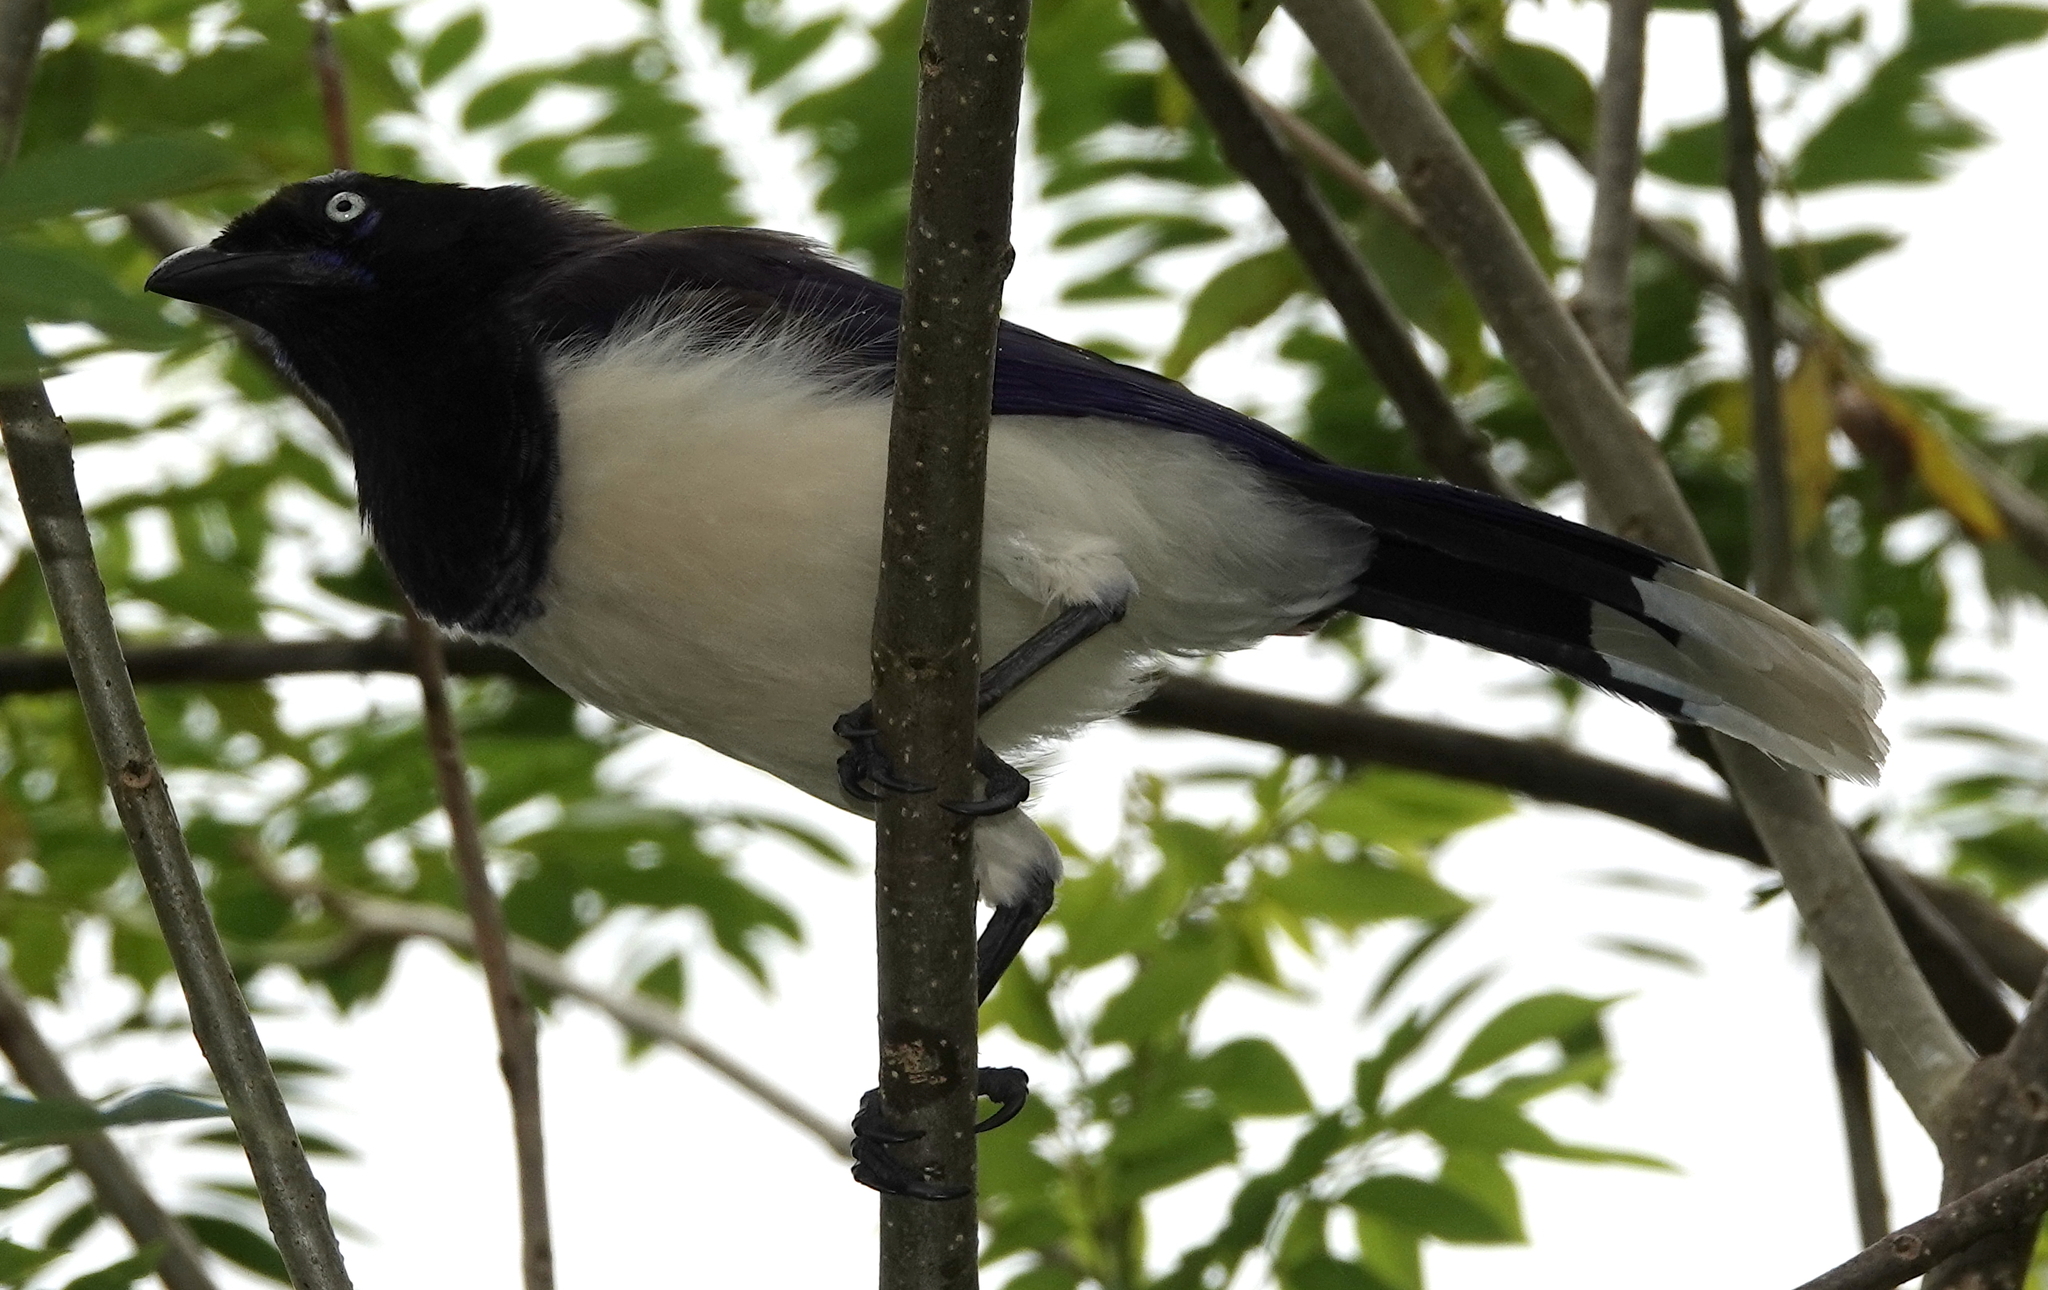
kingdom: Animalia
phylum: Chordata
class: Aves
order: Passeriformes
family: Corvidae
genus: Cyanocorax
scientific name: Cyanocorax affinis
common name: Black-chested jay
